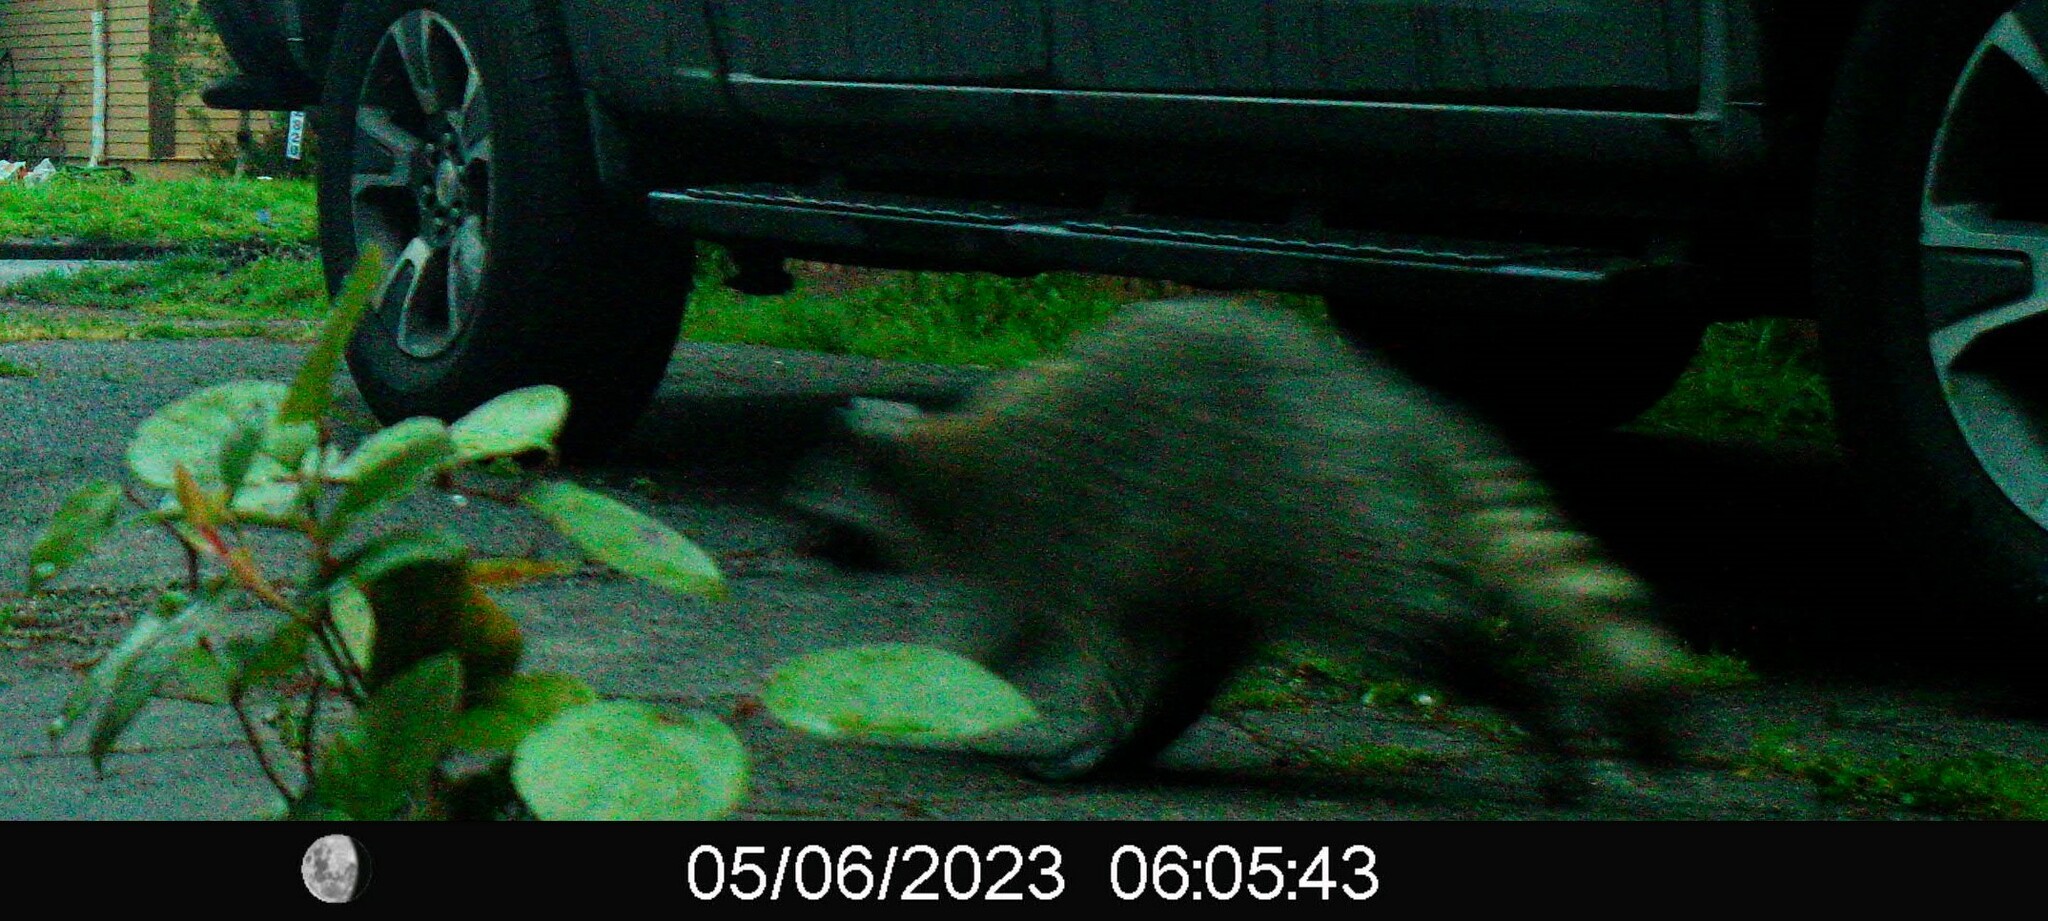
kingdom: Animalia
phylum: Chordata
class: Mammalia
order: Carnivora
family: Procyonidae
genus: Procyon
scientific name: Procyon lotor
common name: Raccoon
